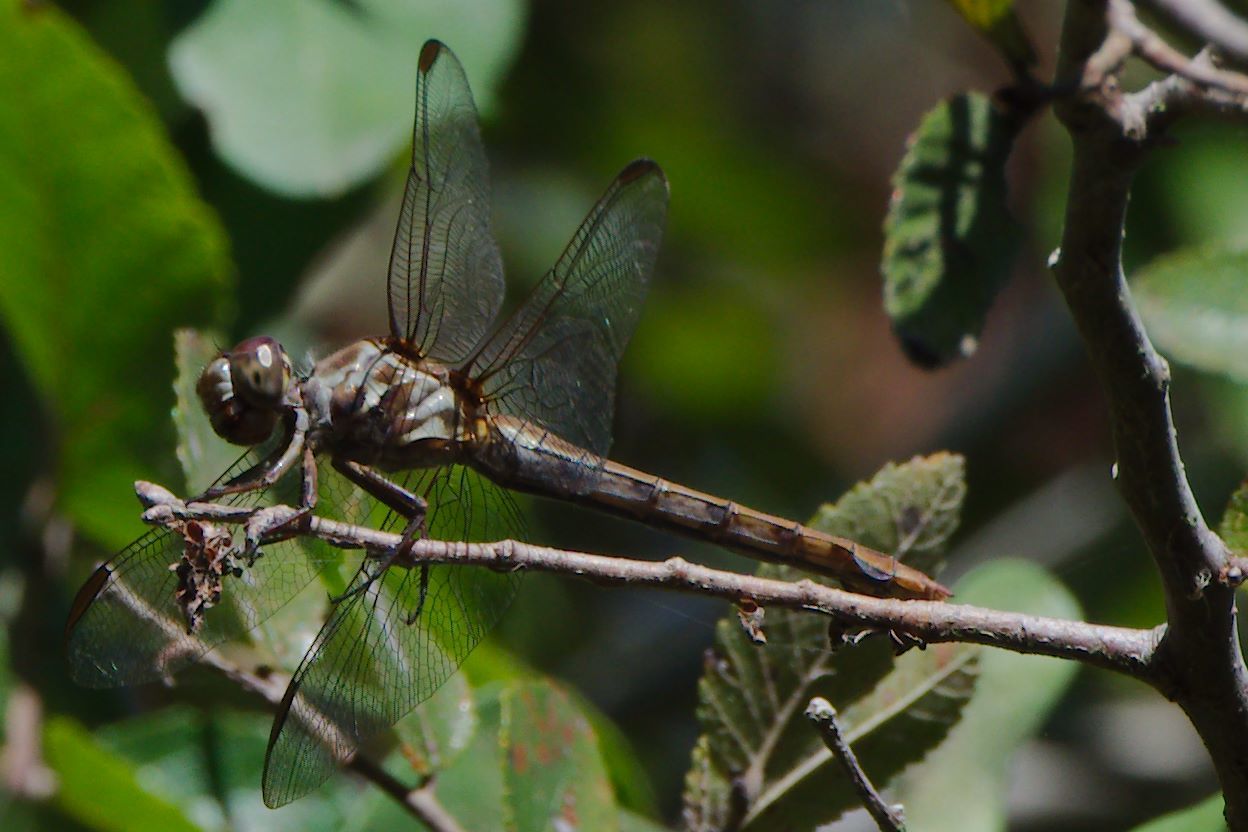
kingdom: Animalia
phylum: Arthropoda
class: Insecta
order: Odonata
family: Libellulidae
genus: Orthemis
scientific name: Orthemis ferruginea
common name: Roseate skimmer
